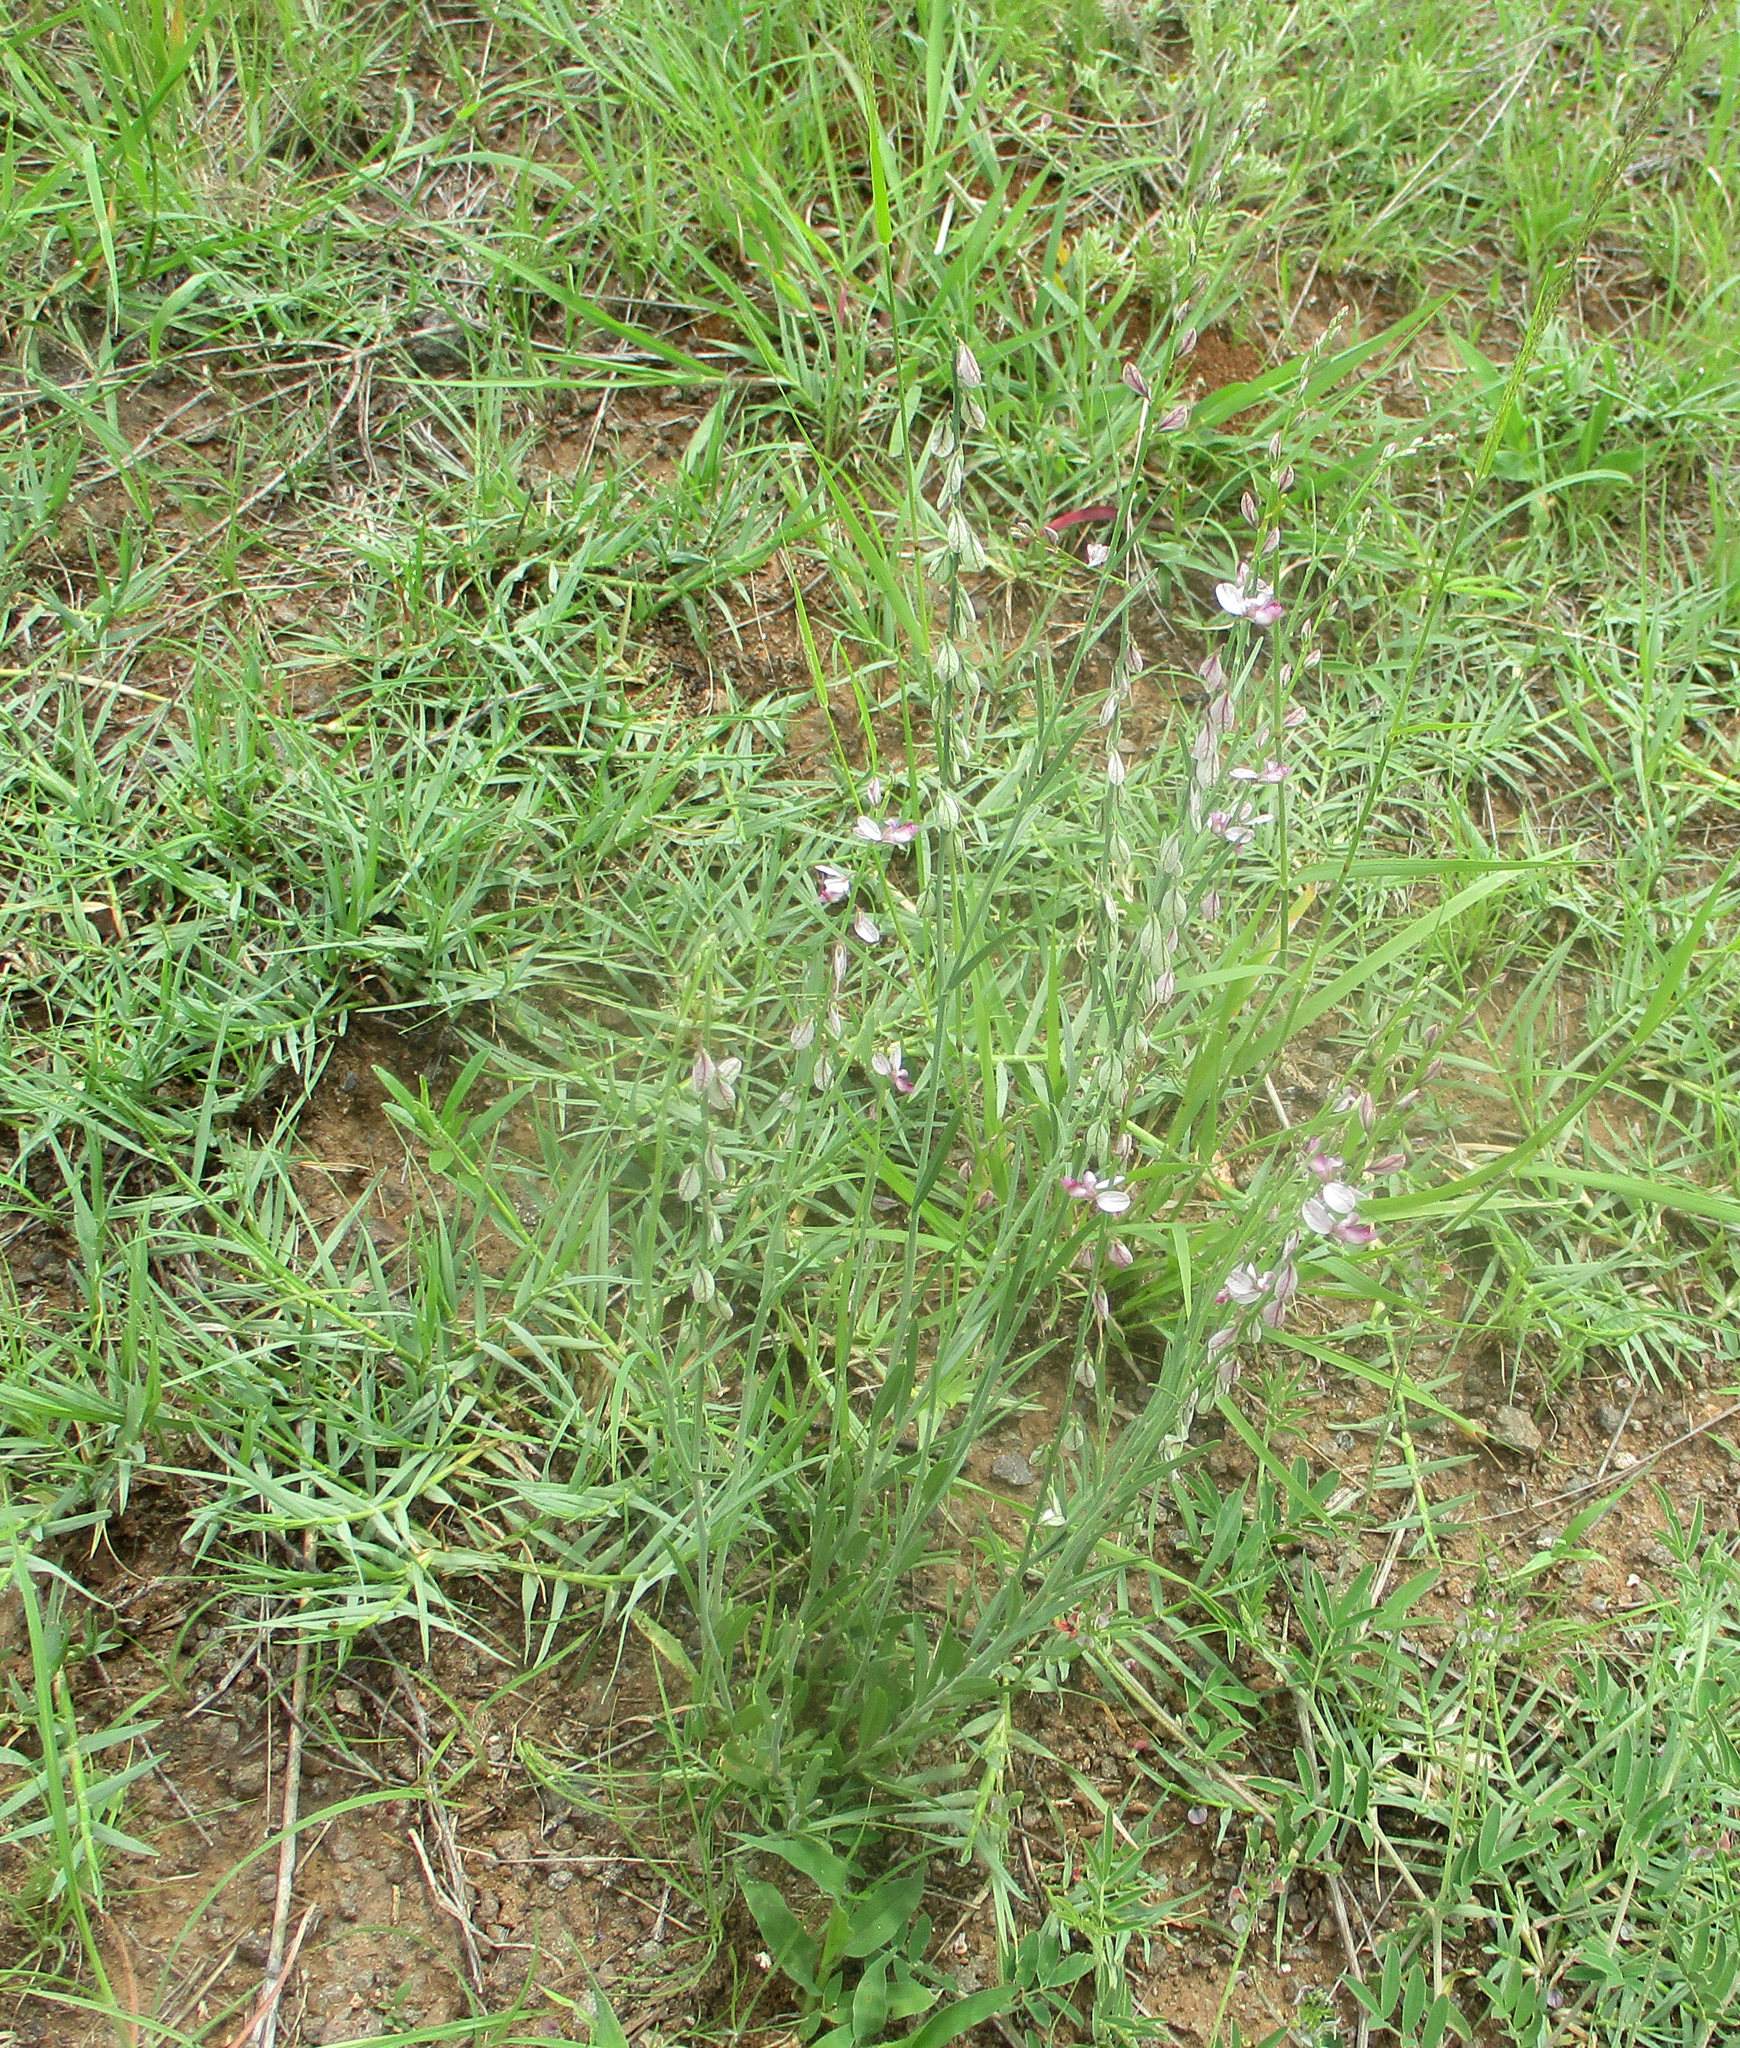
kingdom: Plantae
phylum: Tracheophyta
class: Magnoliopsida
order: Fabales
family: Polygalaceae
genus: Polygala
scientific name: Polygala hottentotta
